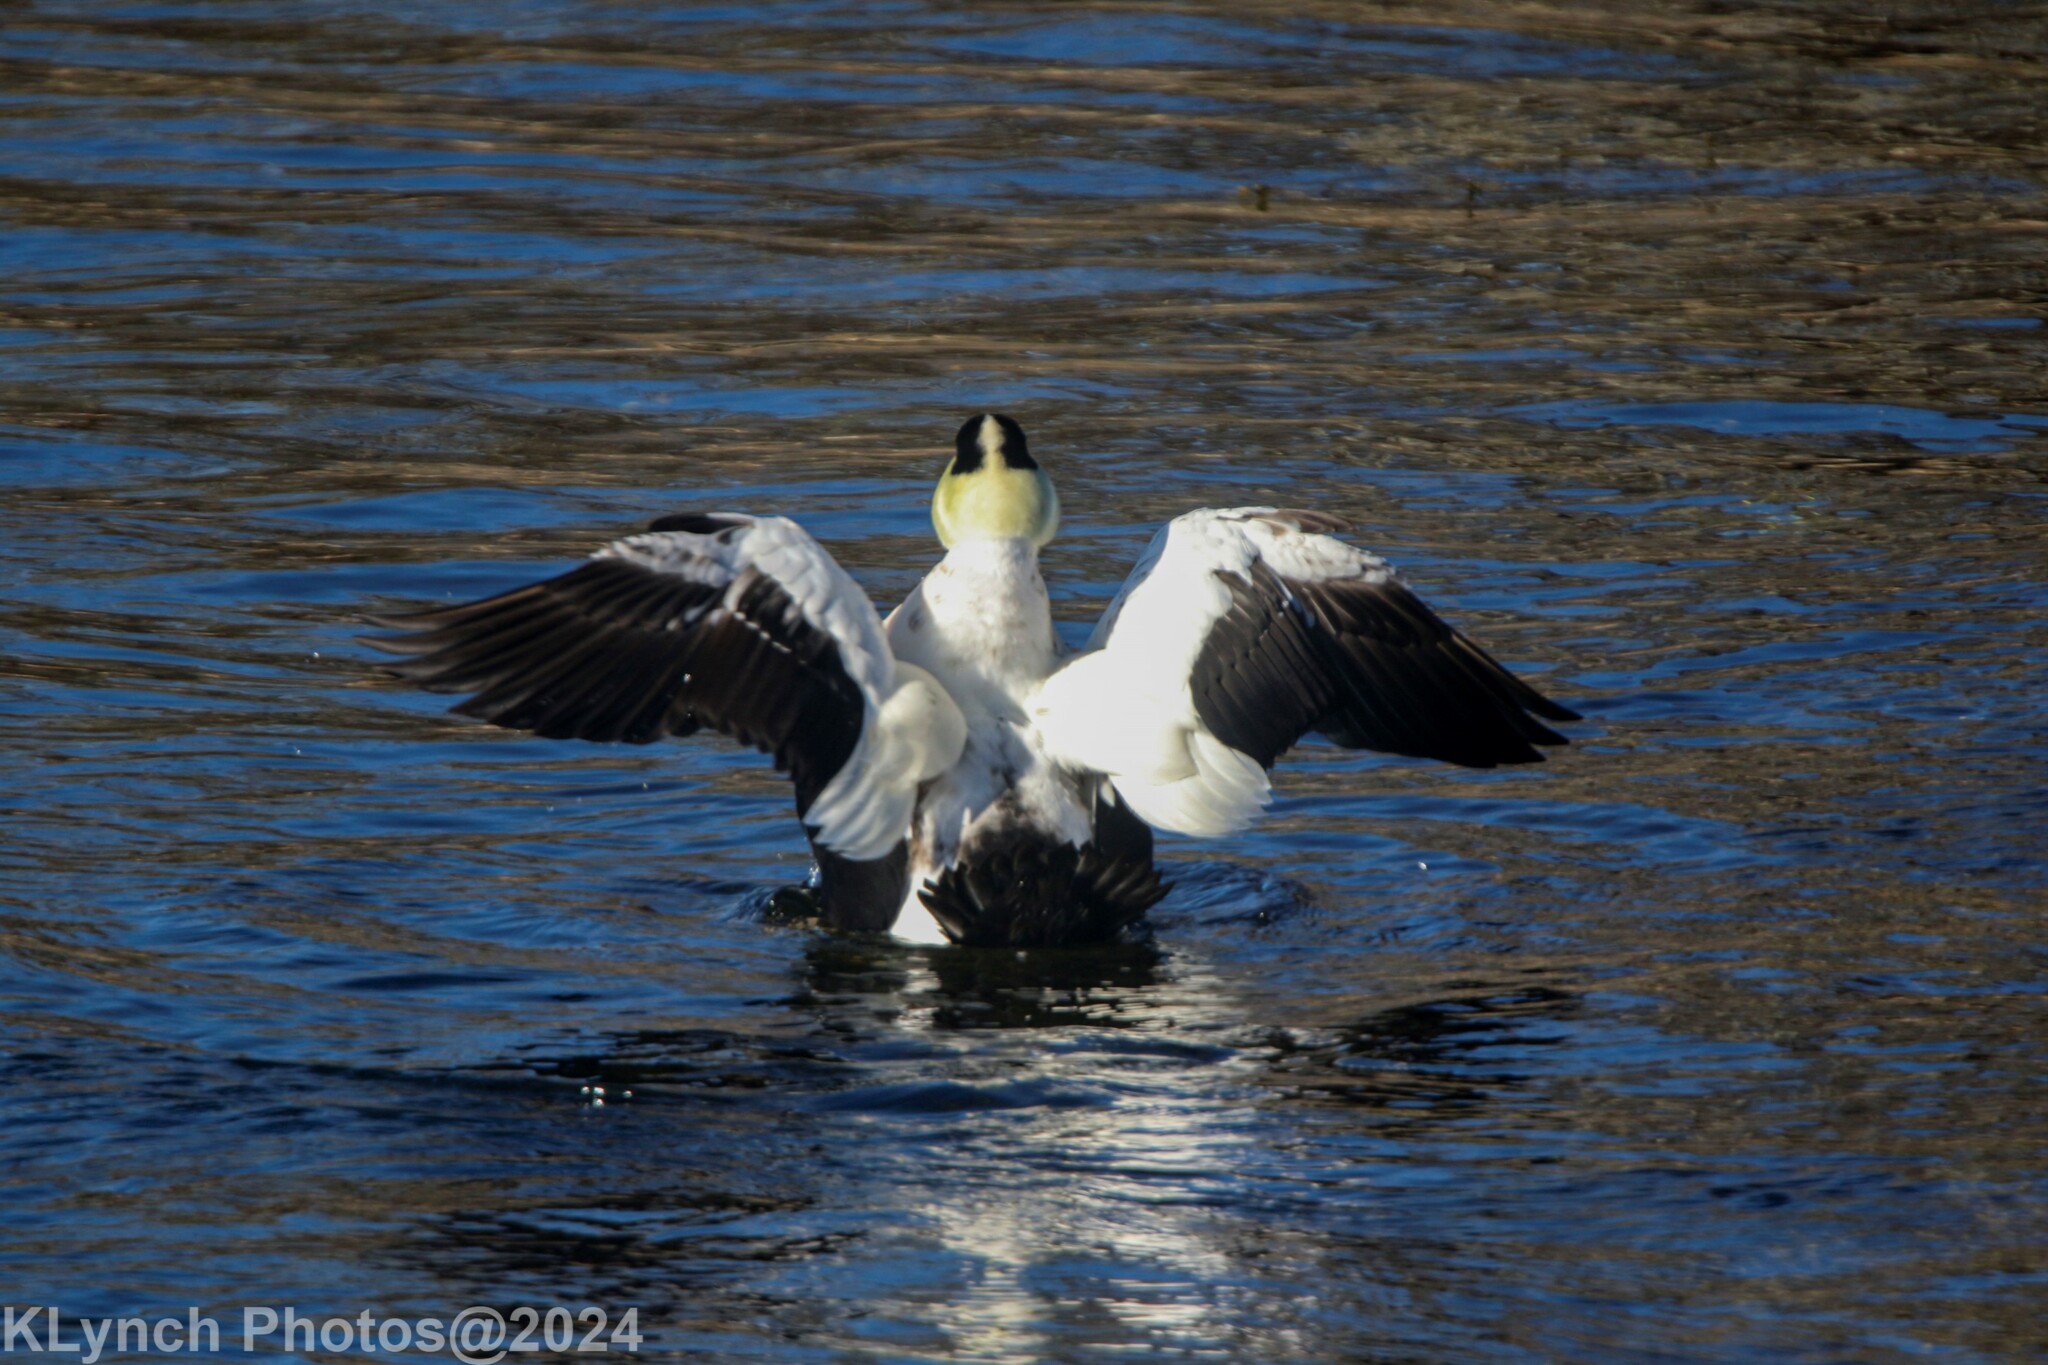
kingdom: Animalia
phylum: Chordata
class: Aves
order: Anseriformes
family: Anatidae
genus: Somateria
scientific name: Somateria mollissima
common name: Common eider
